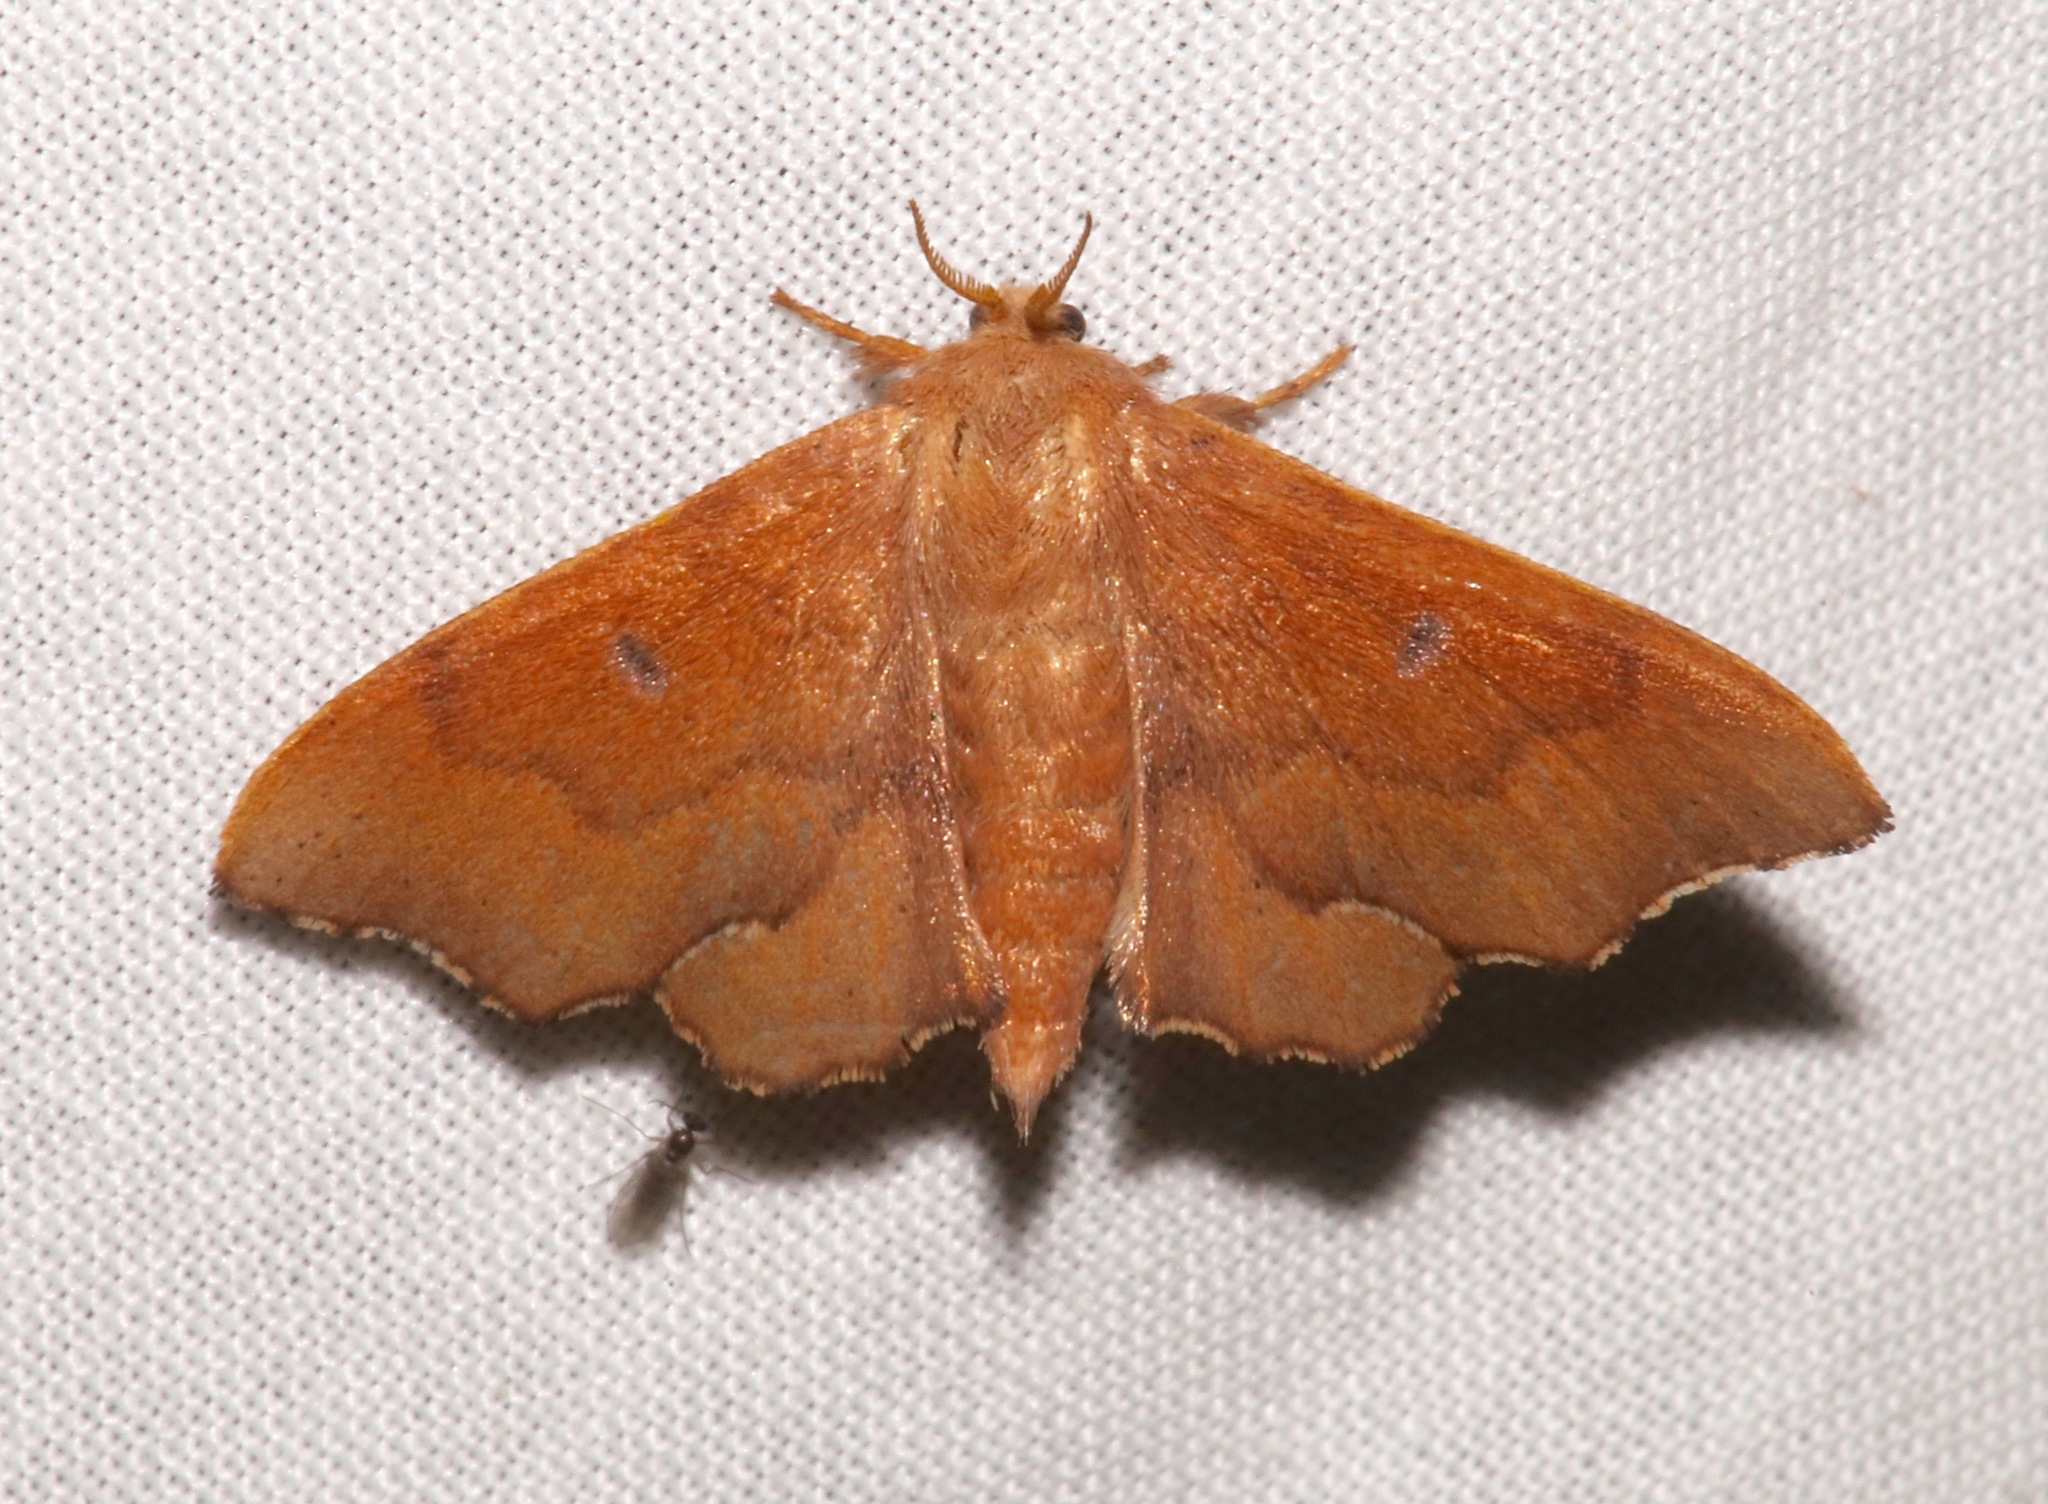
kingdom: Animalia
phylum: Arthropoda
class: Insecta
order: Lepidoptera
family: Mimallonidae
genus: Lacosoma
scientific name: Lacosoma chiridota
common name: Scalloped sack-bearer moth
